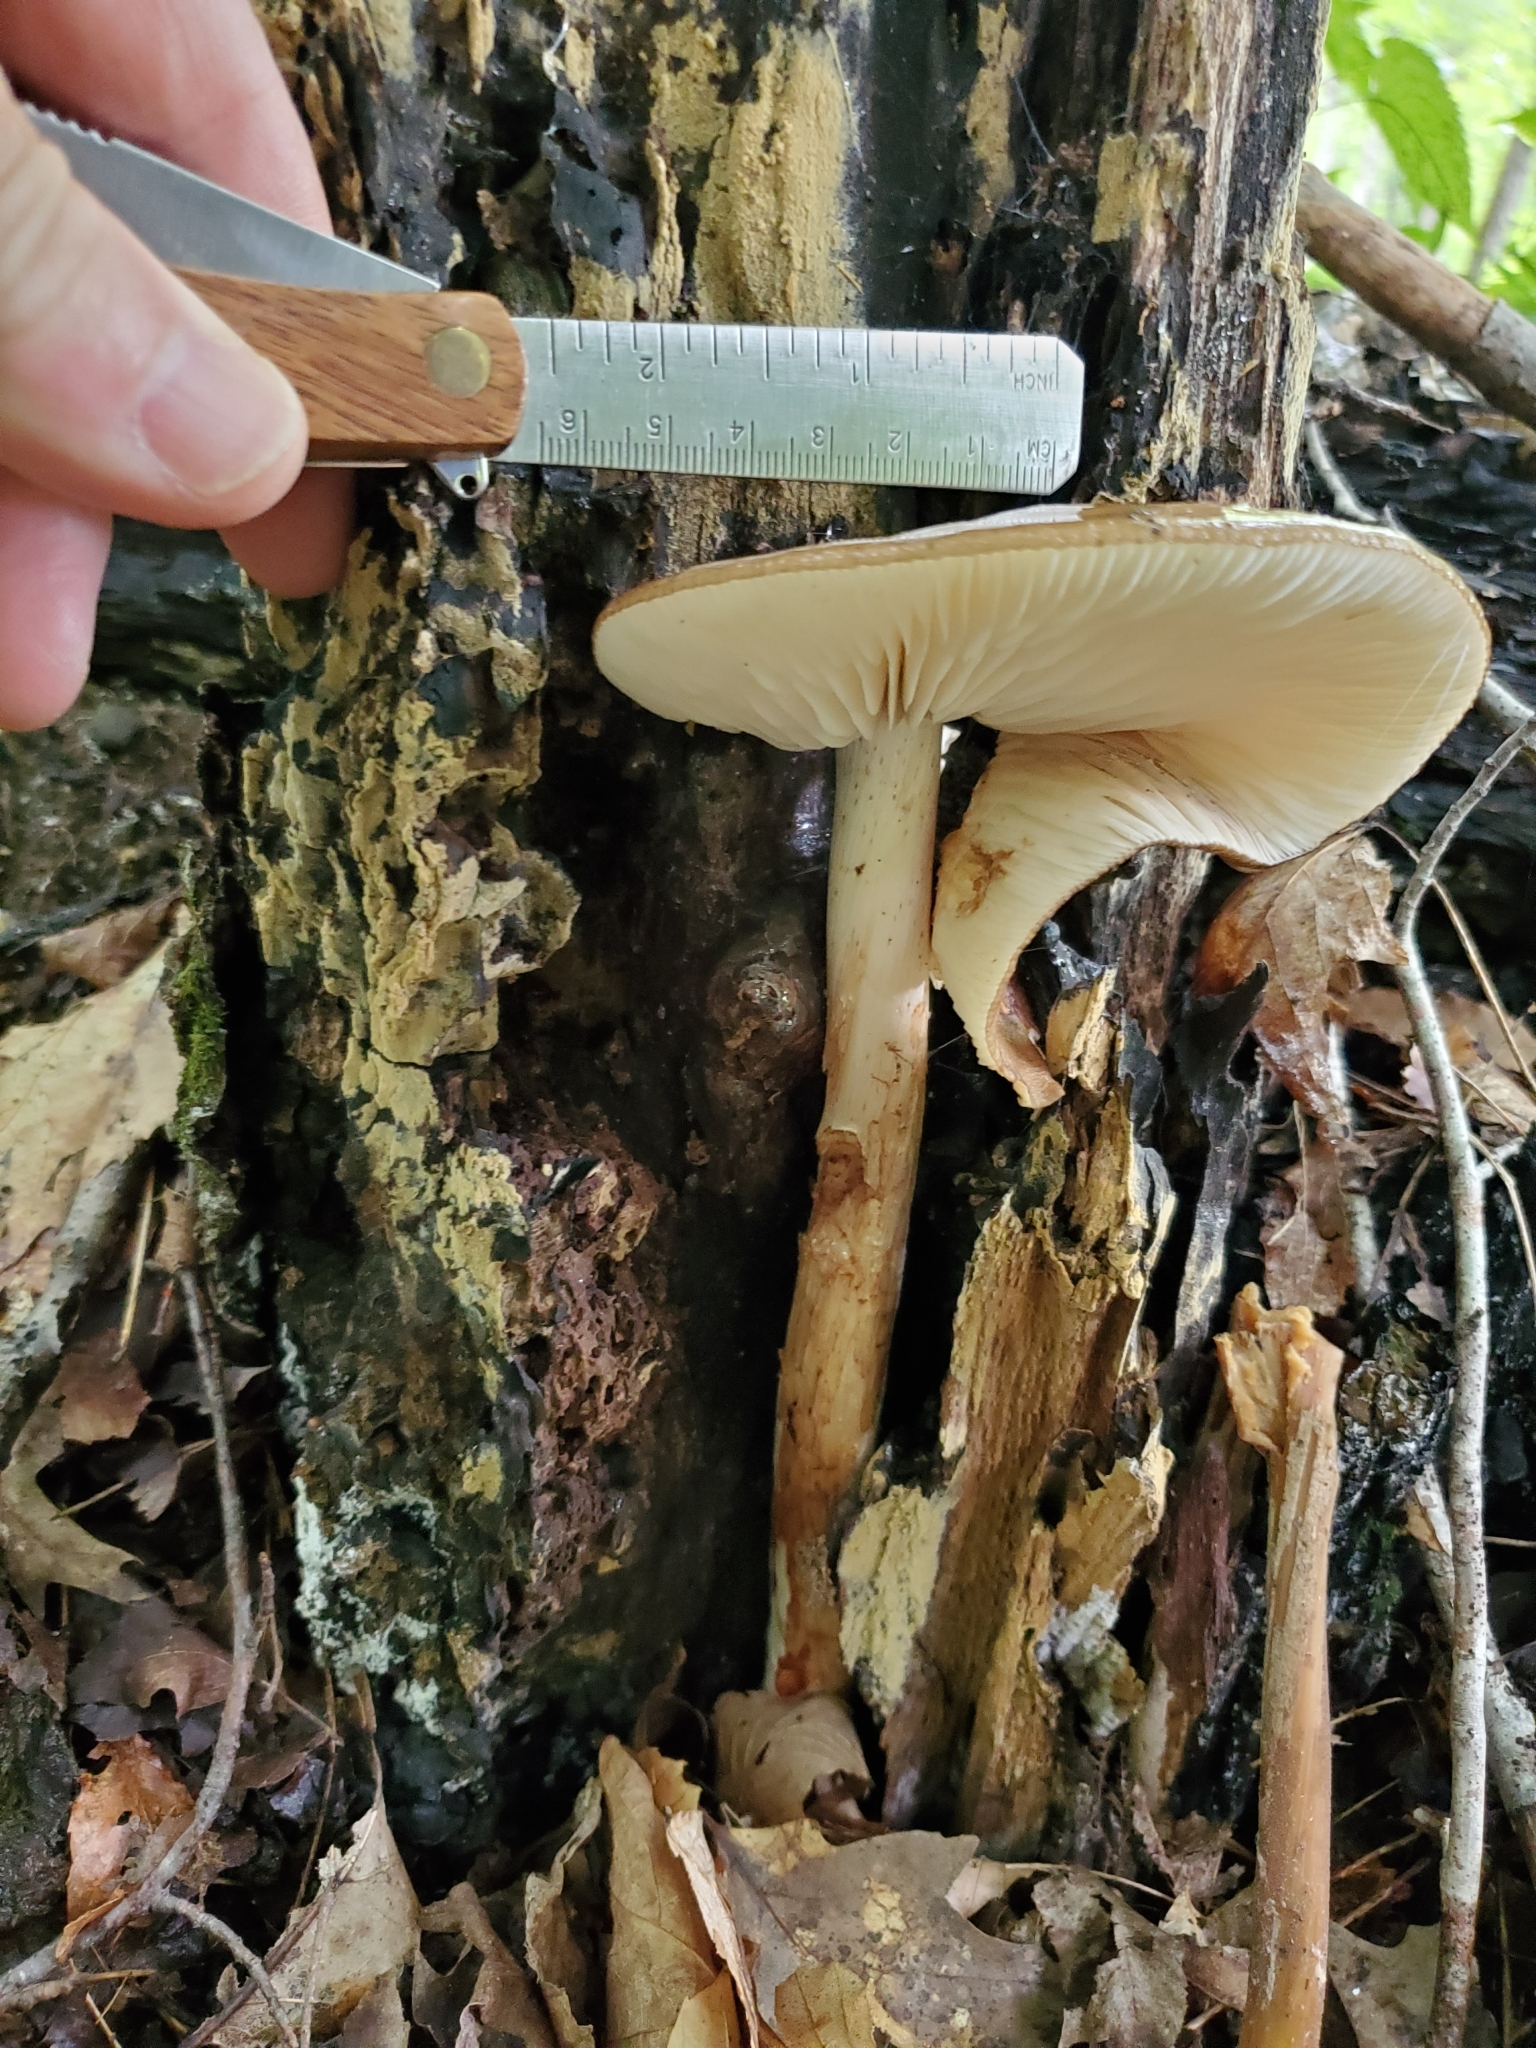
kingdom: Fungi
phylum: Basidiomycota
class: Agaricomycetes
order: Agaricales
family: Physalacriaceae
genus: Hymenopellis
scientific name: Hymenopellis radicata
